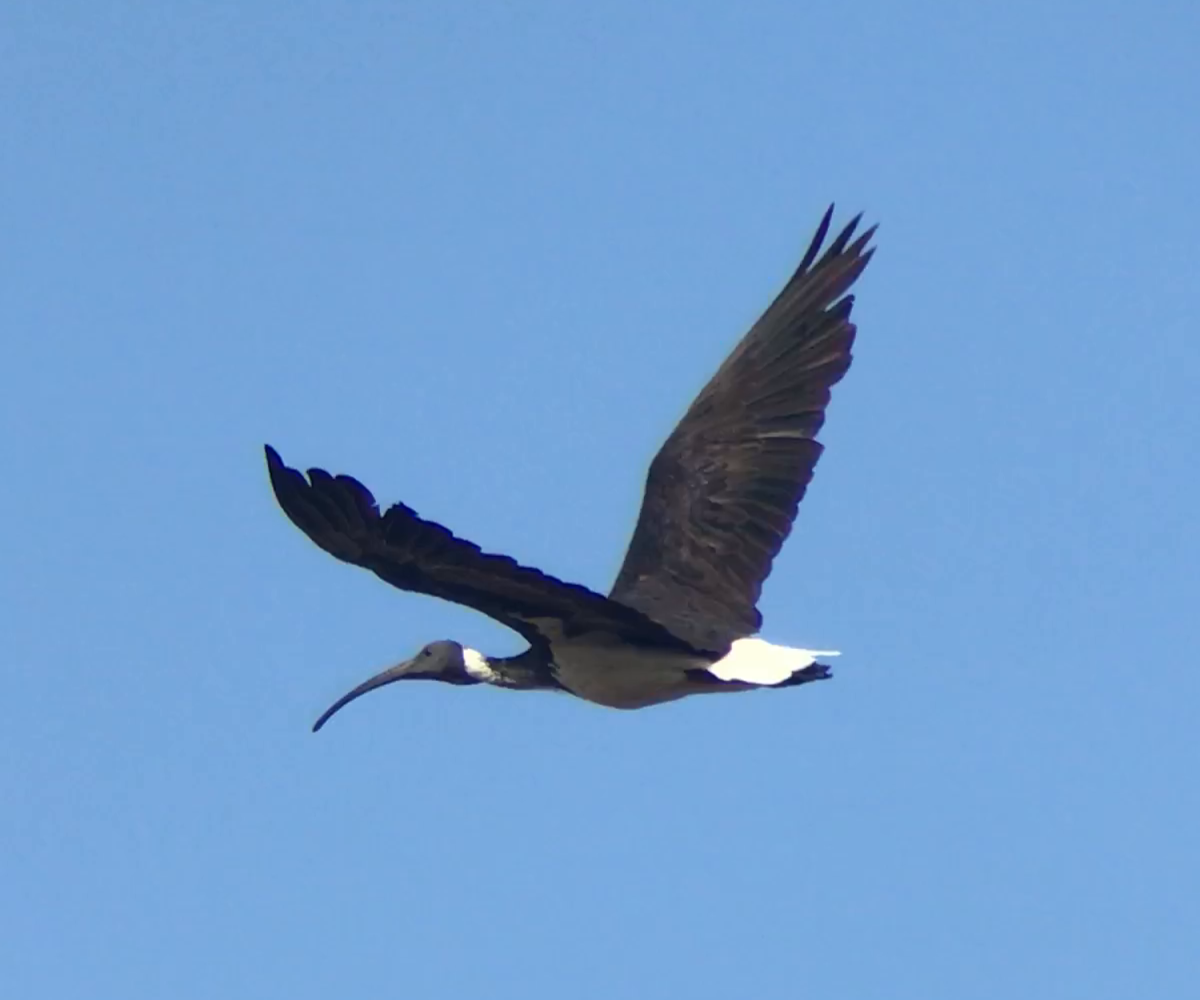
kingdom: Animalia
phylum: Chordata
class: Aves
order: Pelecaniformes
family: Threskiornithidae
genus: Threskiornis
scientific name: Threskiornis spinicollis
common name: Straw-necked ibis
